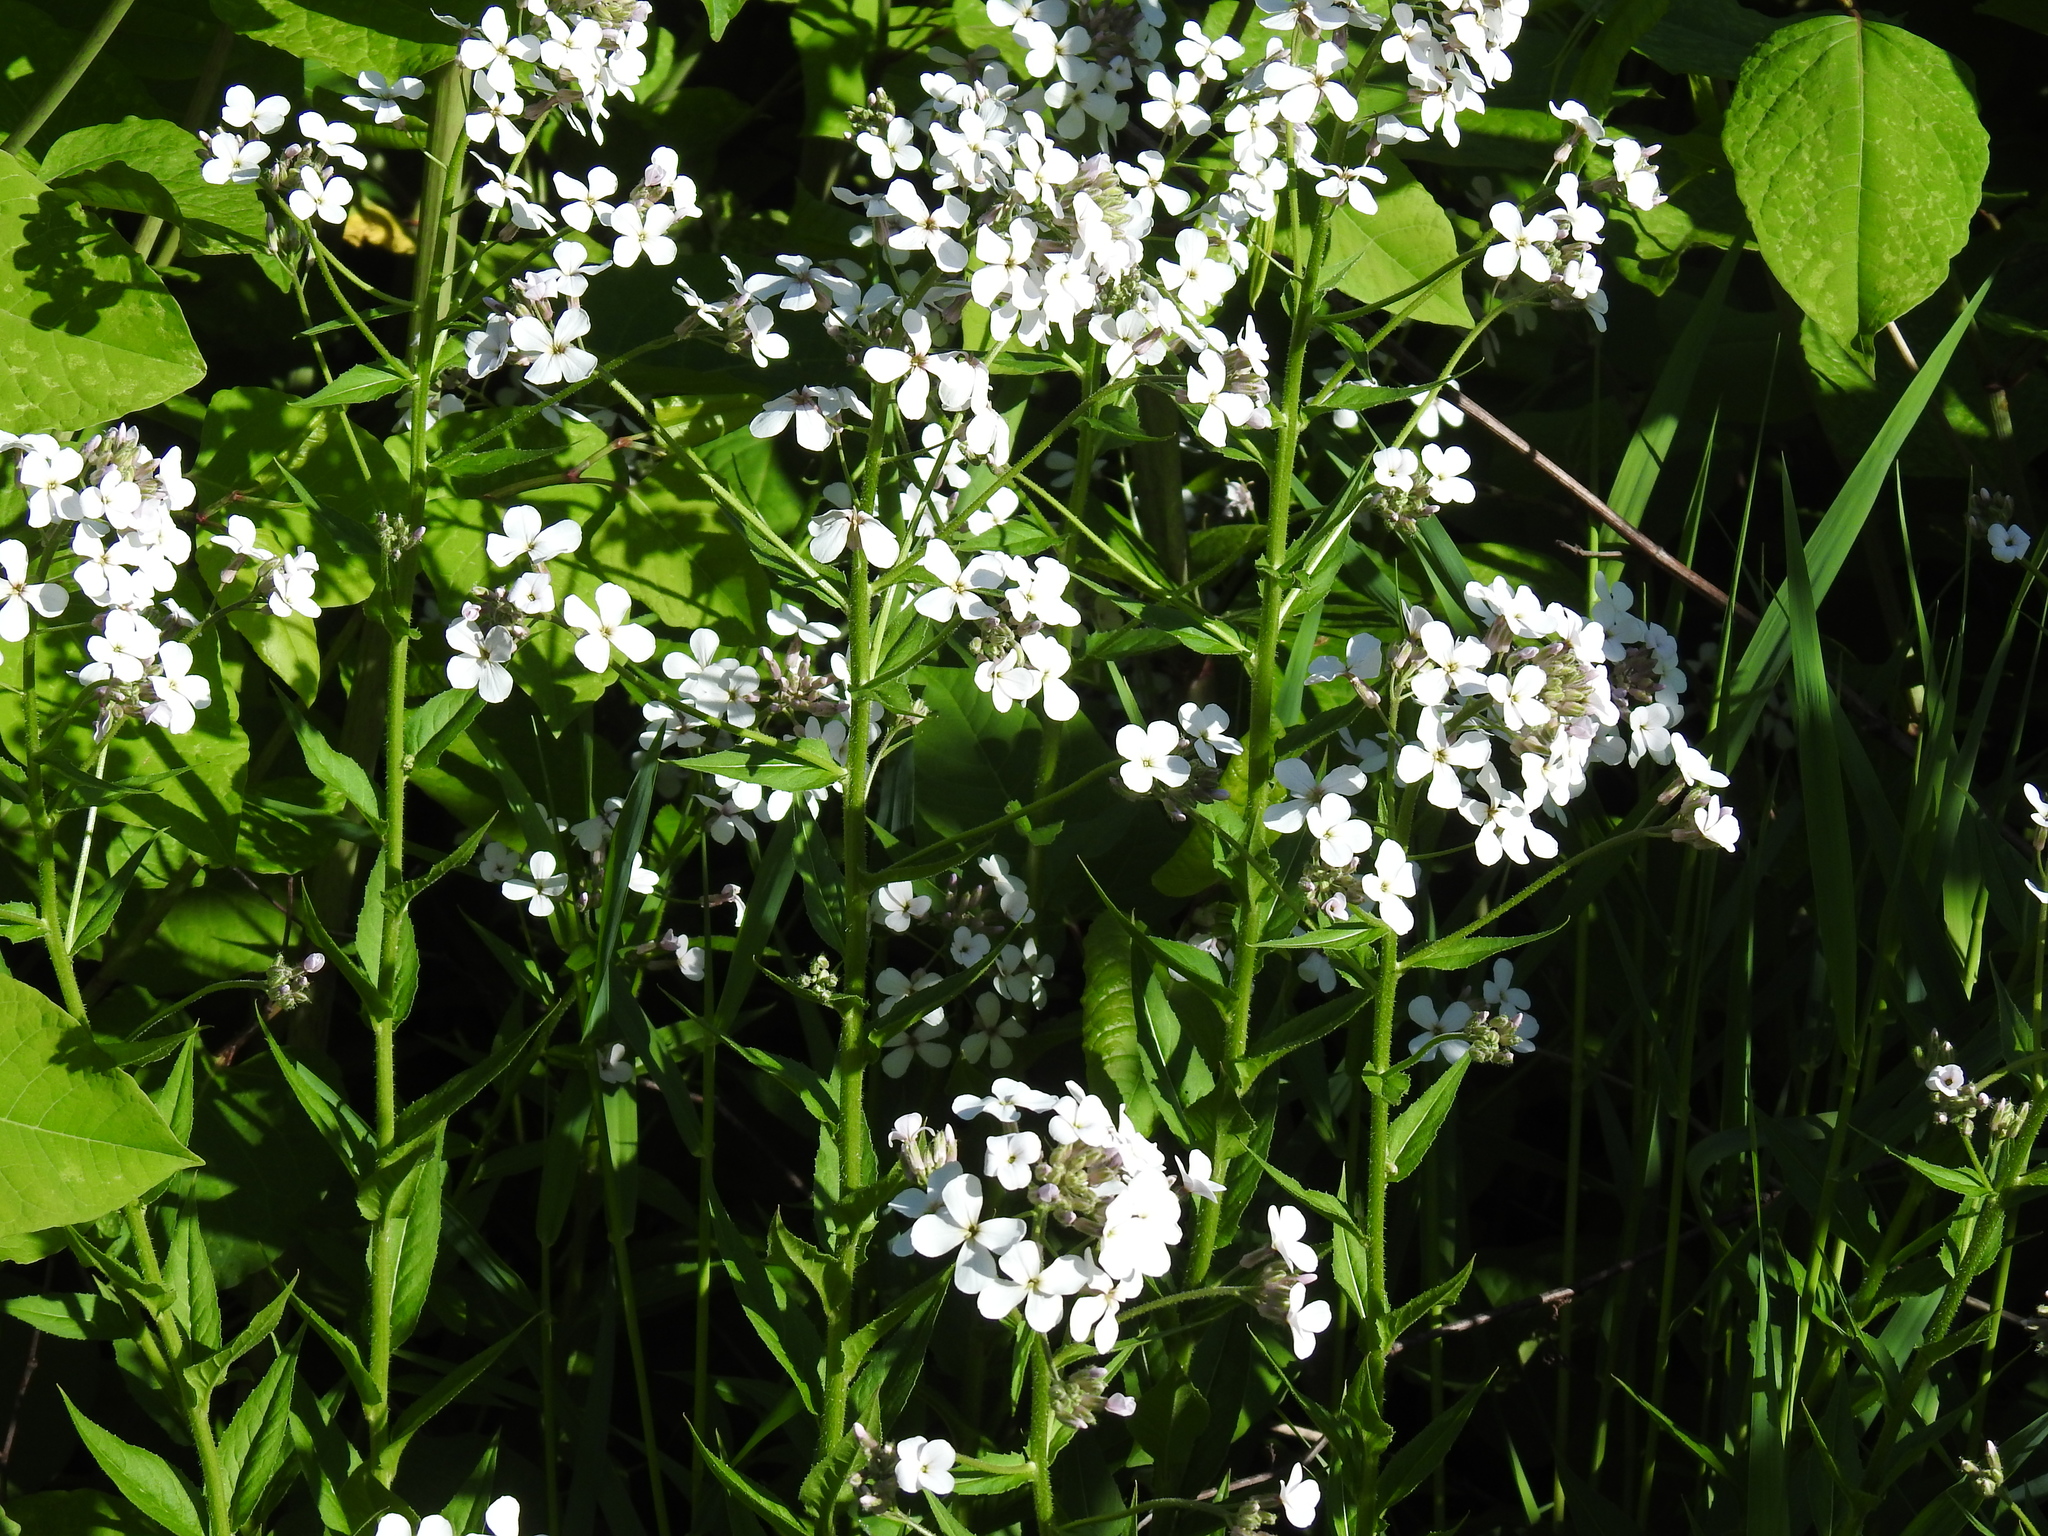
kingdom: Plantae
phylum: Tracheophyta
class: Magnoliopsida
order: Brassicales
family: Brassicaceae
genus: Hesperis
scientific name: Hesperis matronalis
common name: Dame's-violet
